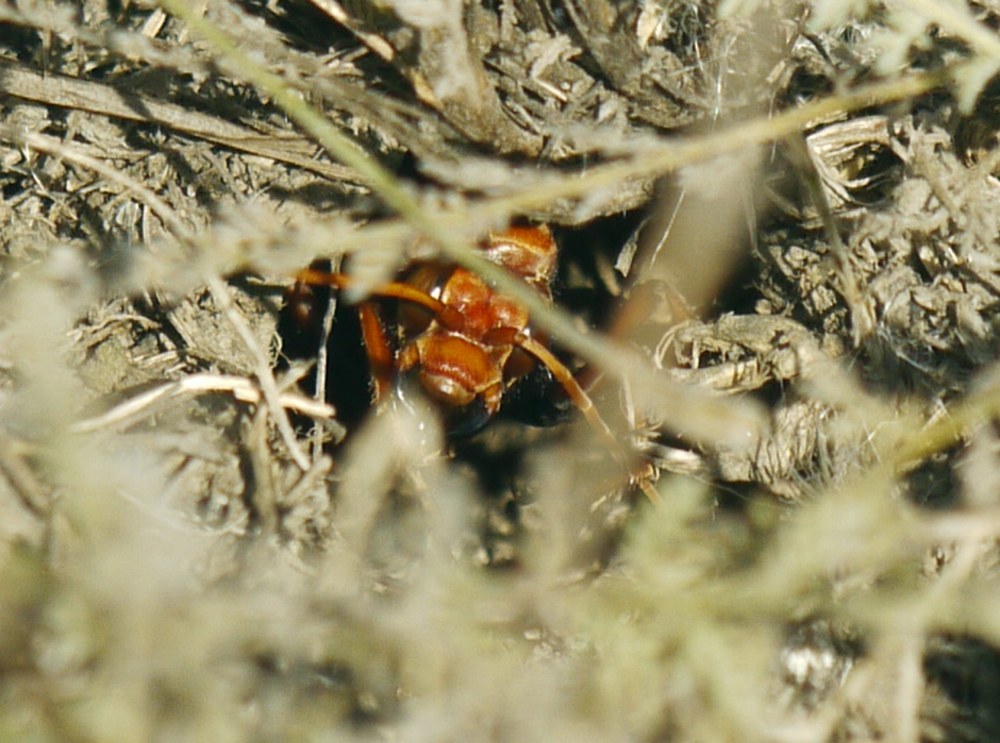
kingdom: Animalia
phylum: Arthropoda
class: Insecta
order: Hymenoptera
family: Pompilidae
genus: Cryptocheilus
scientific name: Cryptocheilus rubellus
